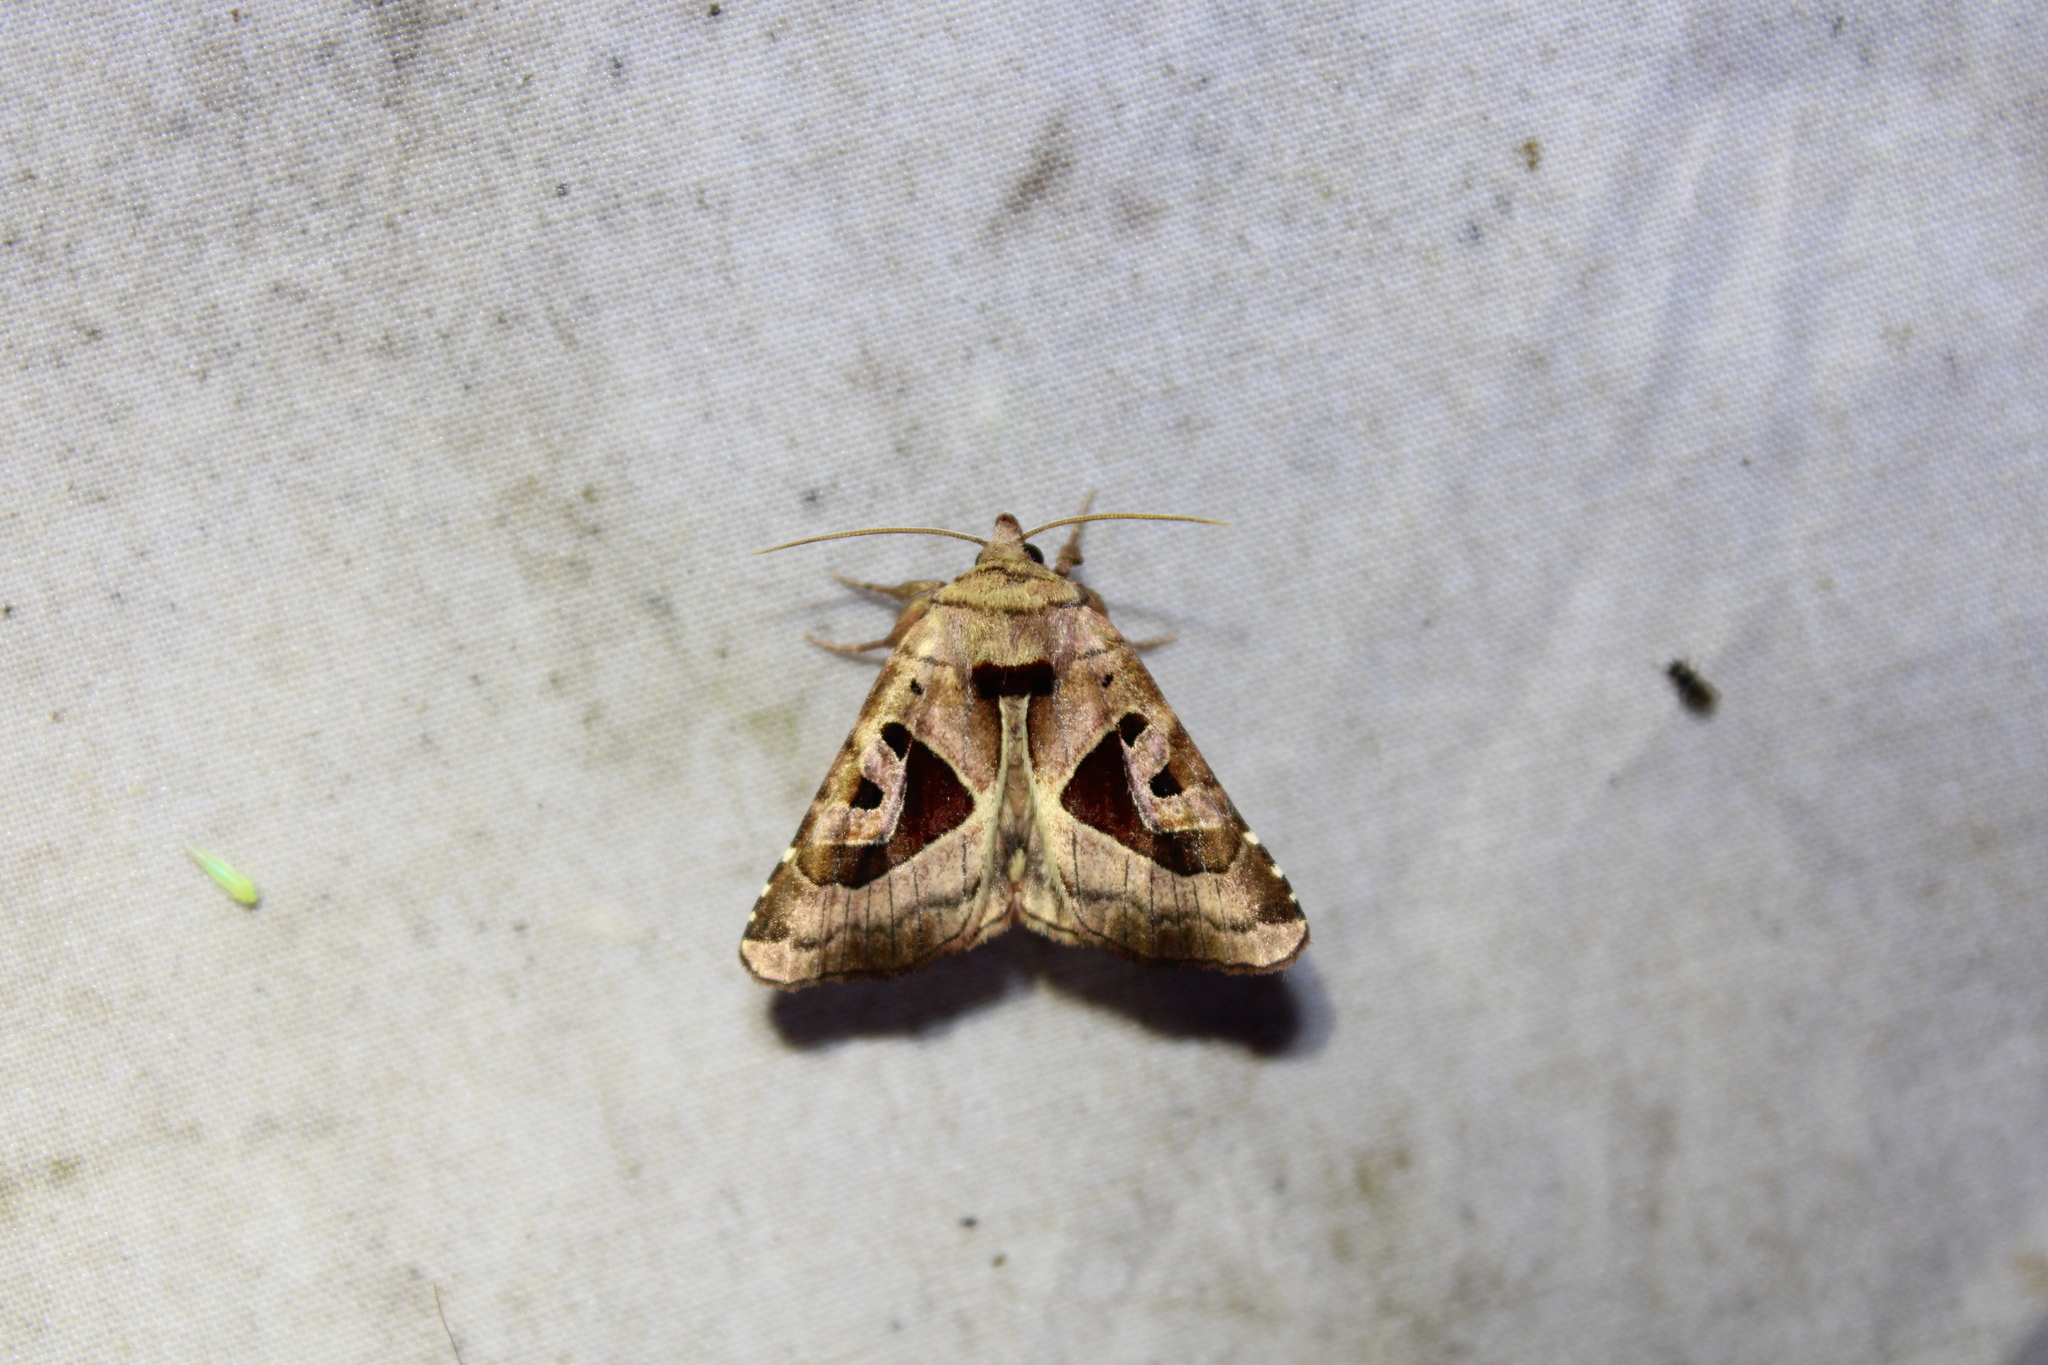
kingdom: Animalia
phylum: Arthropoda
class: Insecta
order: Lepidoptera
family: Noctuidae
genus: Conservula
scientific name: Conservula anodonta
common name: Sharp angle shades
